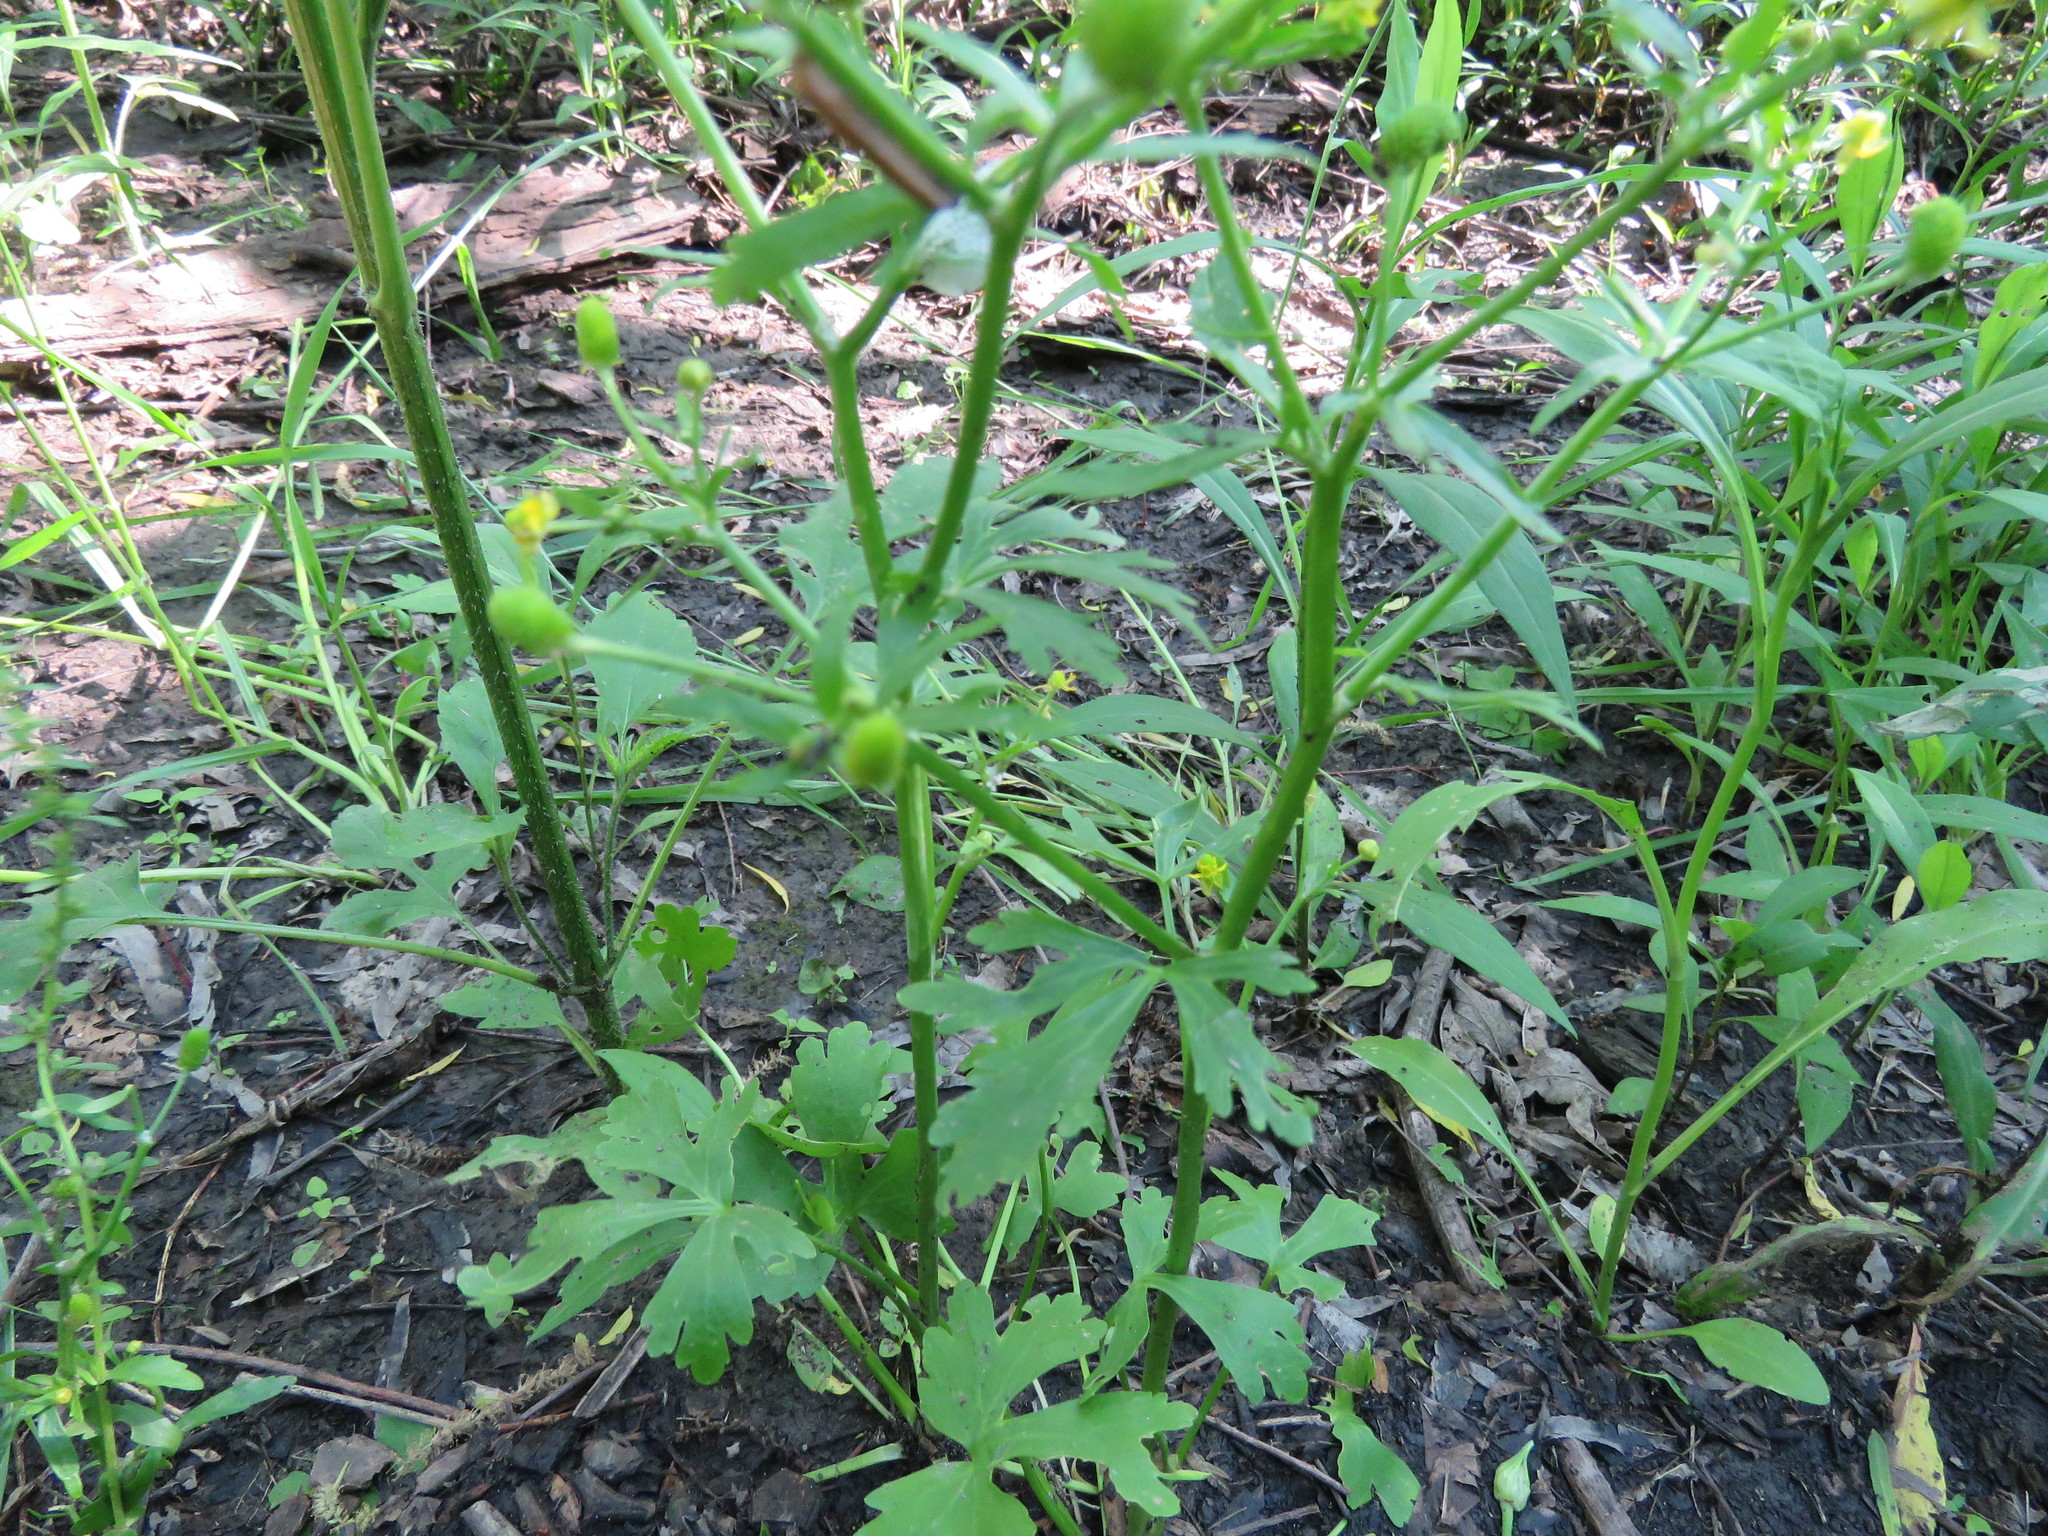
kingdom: Plantae
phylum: Tracheophyta
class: Magnoliopsida
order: Ranunculales
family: Ranunculaceae
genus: Ranunculus
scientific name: Ranunculus sceleratus
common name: Celery-leaved buttercup
